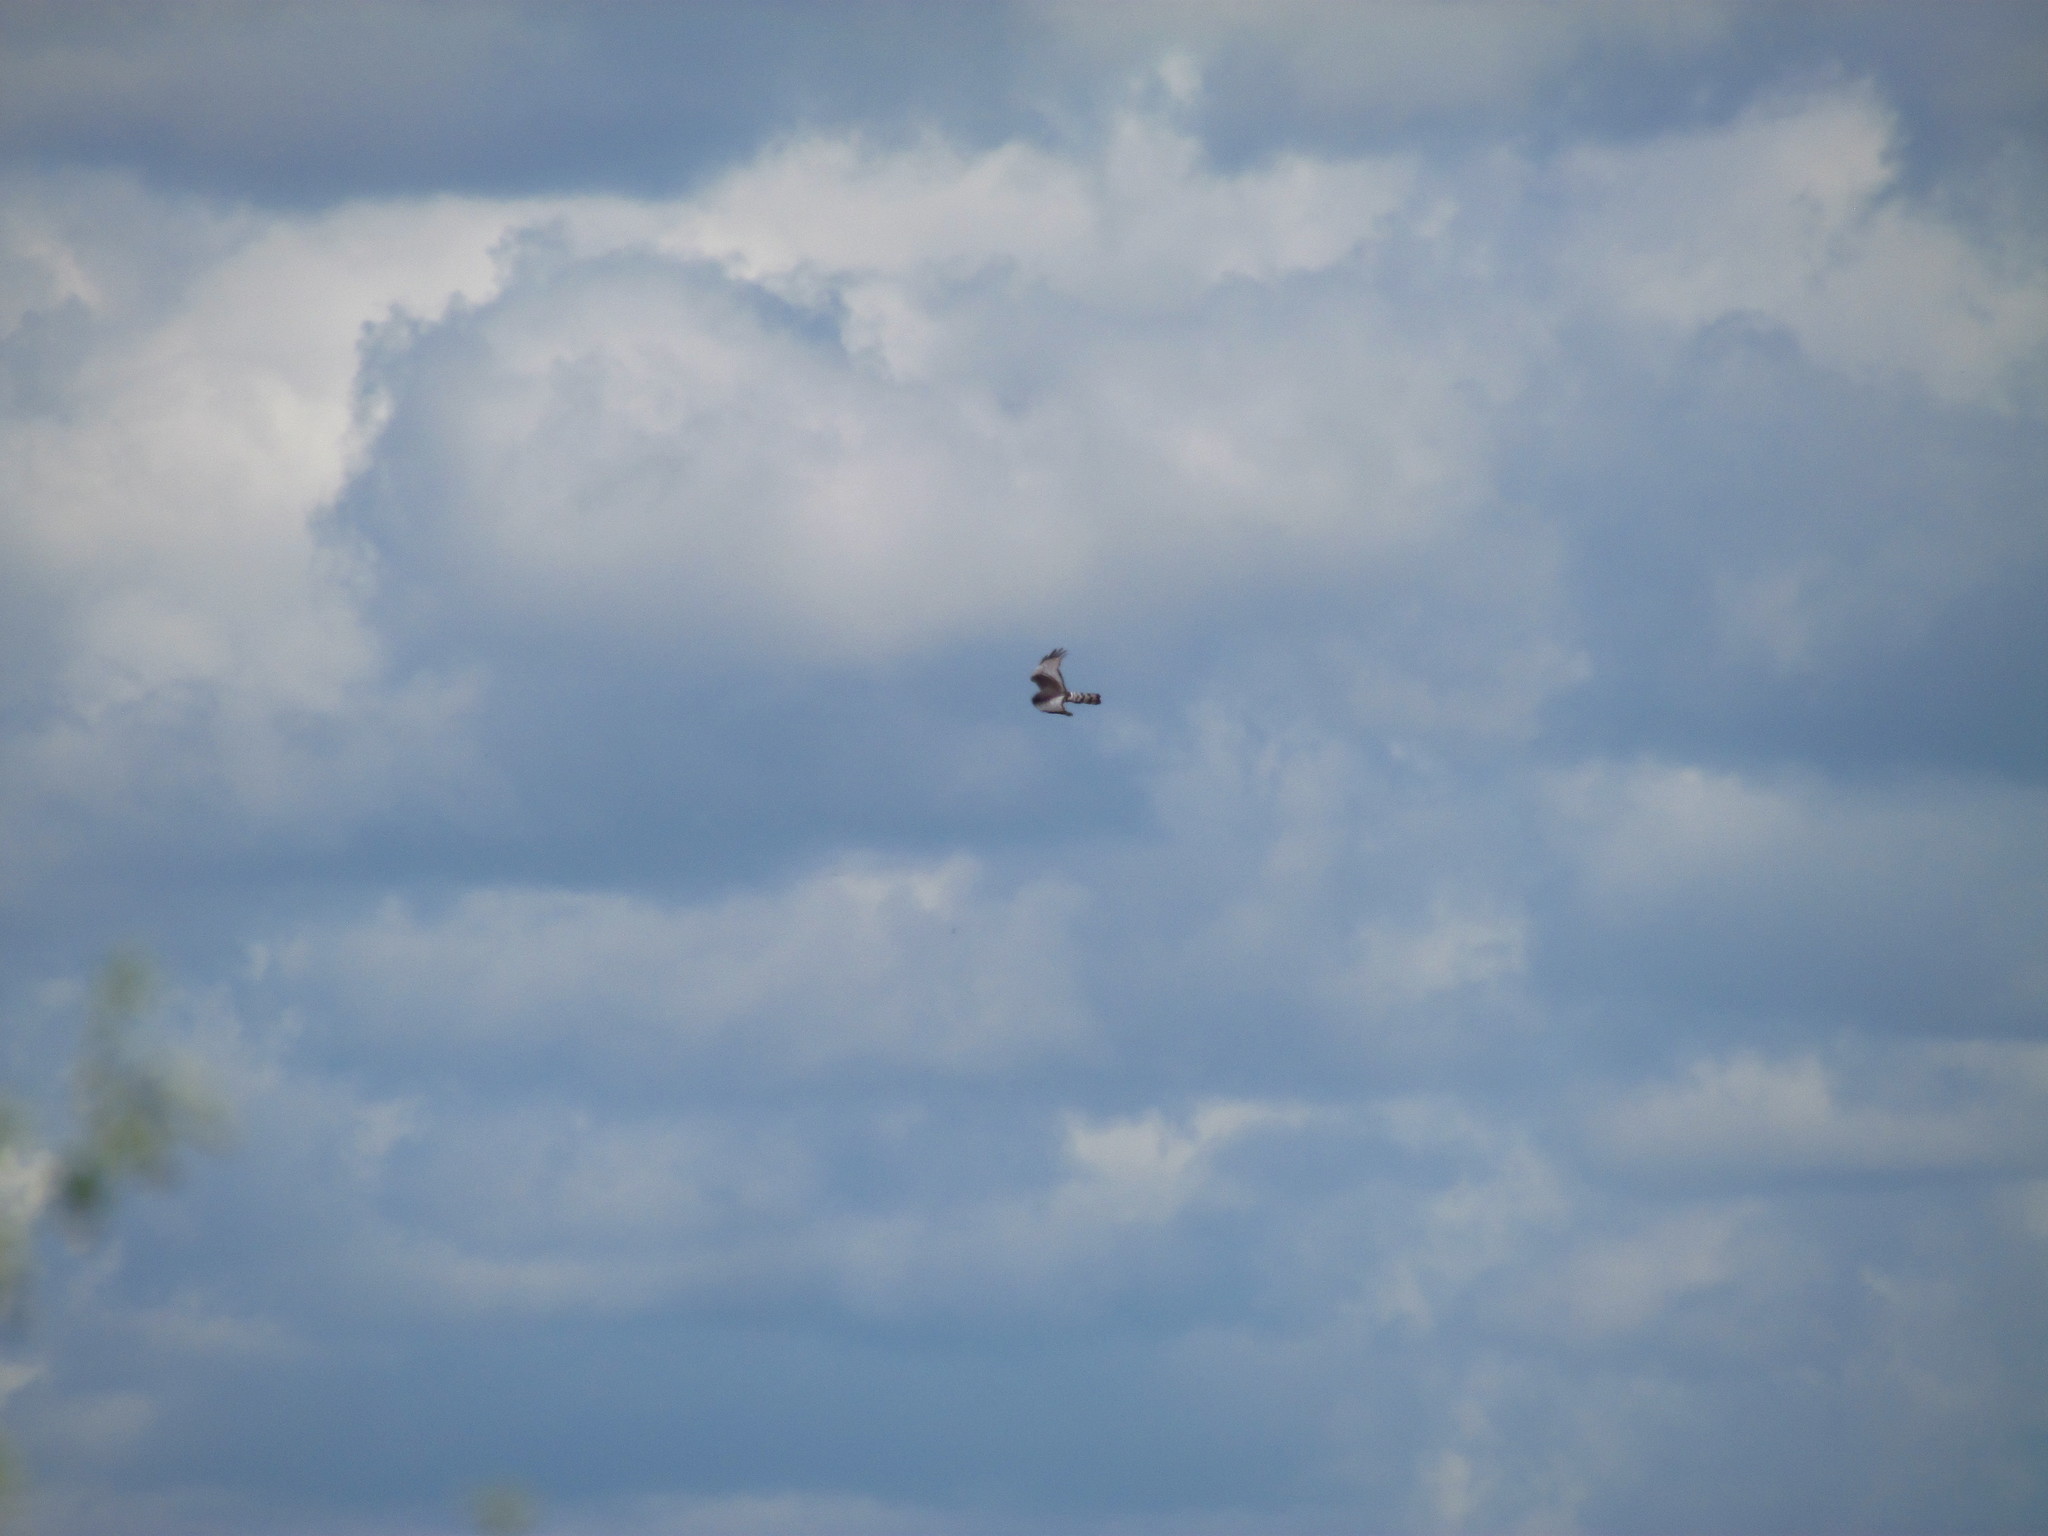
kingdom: Animalia
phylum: Chordata
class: Aves
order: Accipitriformes
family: Accipitridae
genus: Circus
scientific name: Circus buffoni
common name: Long-winged harrier
